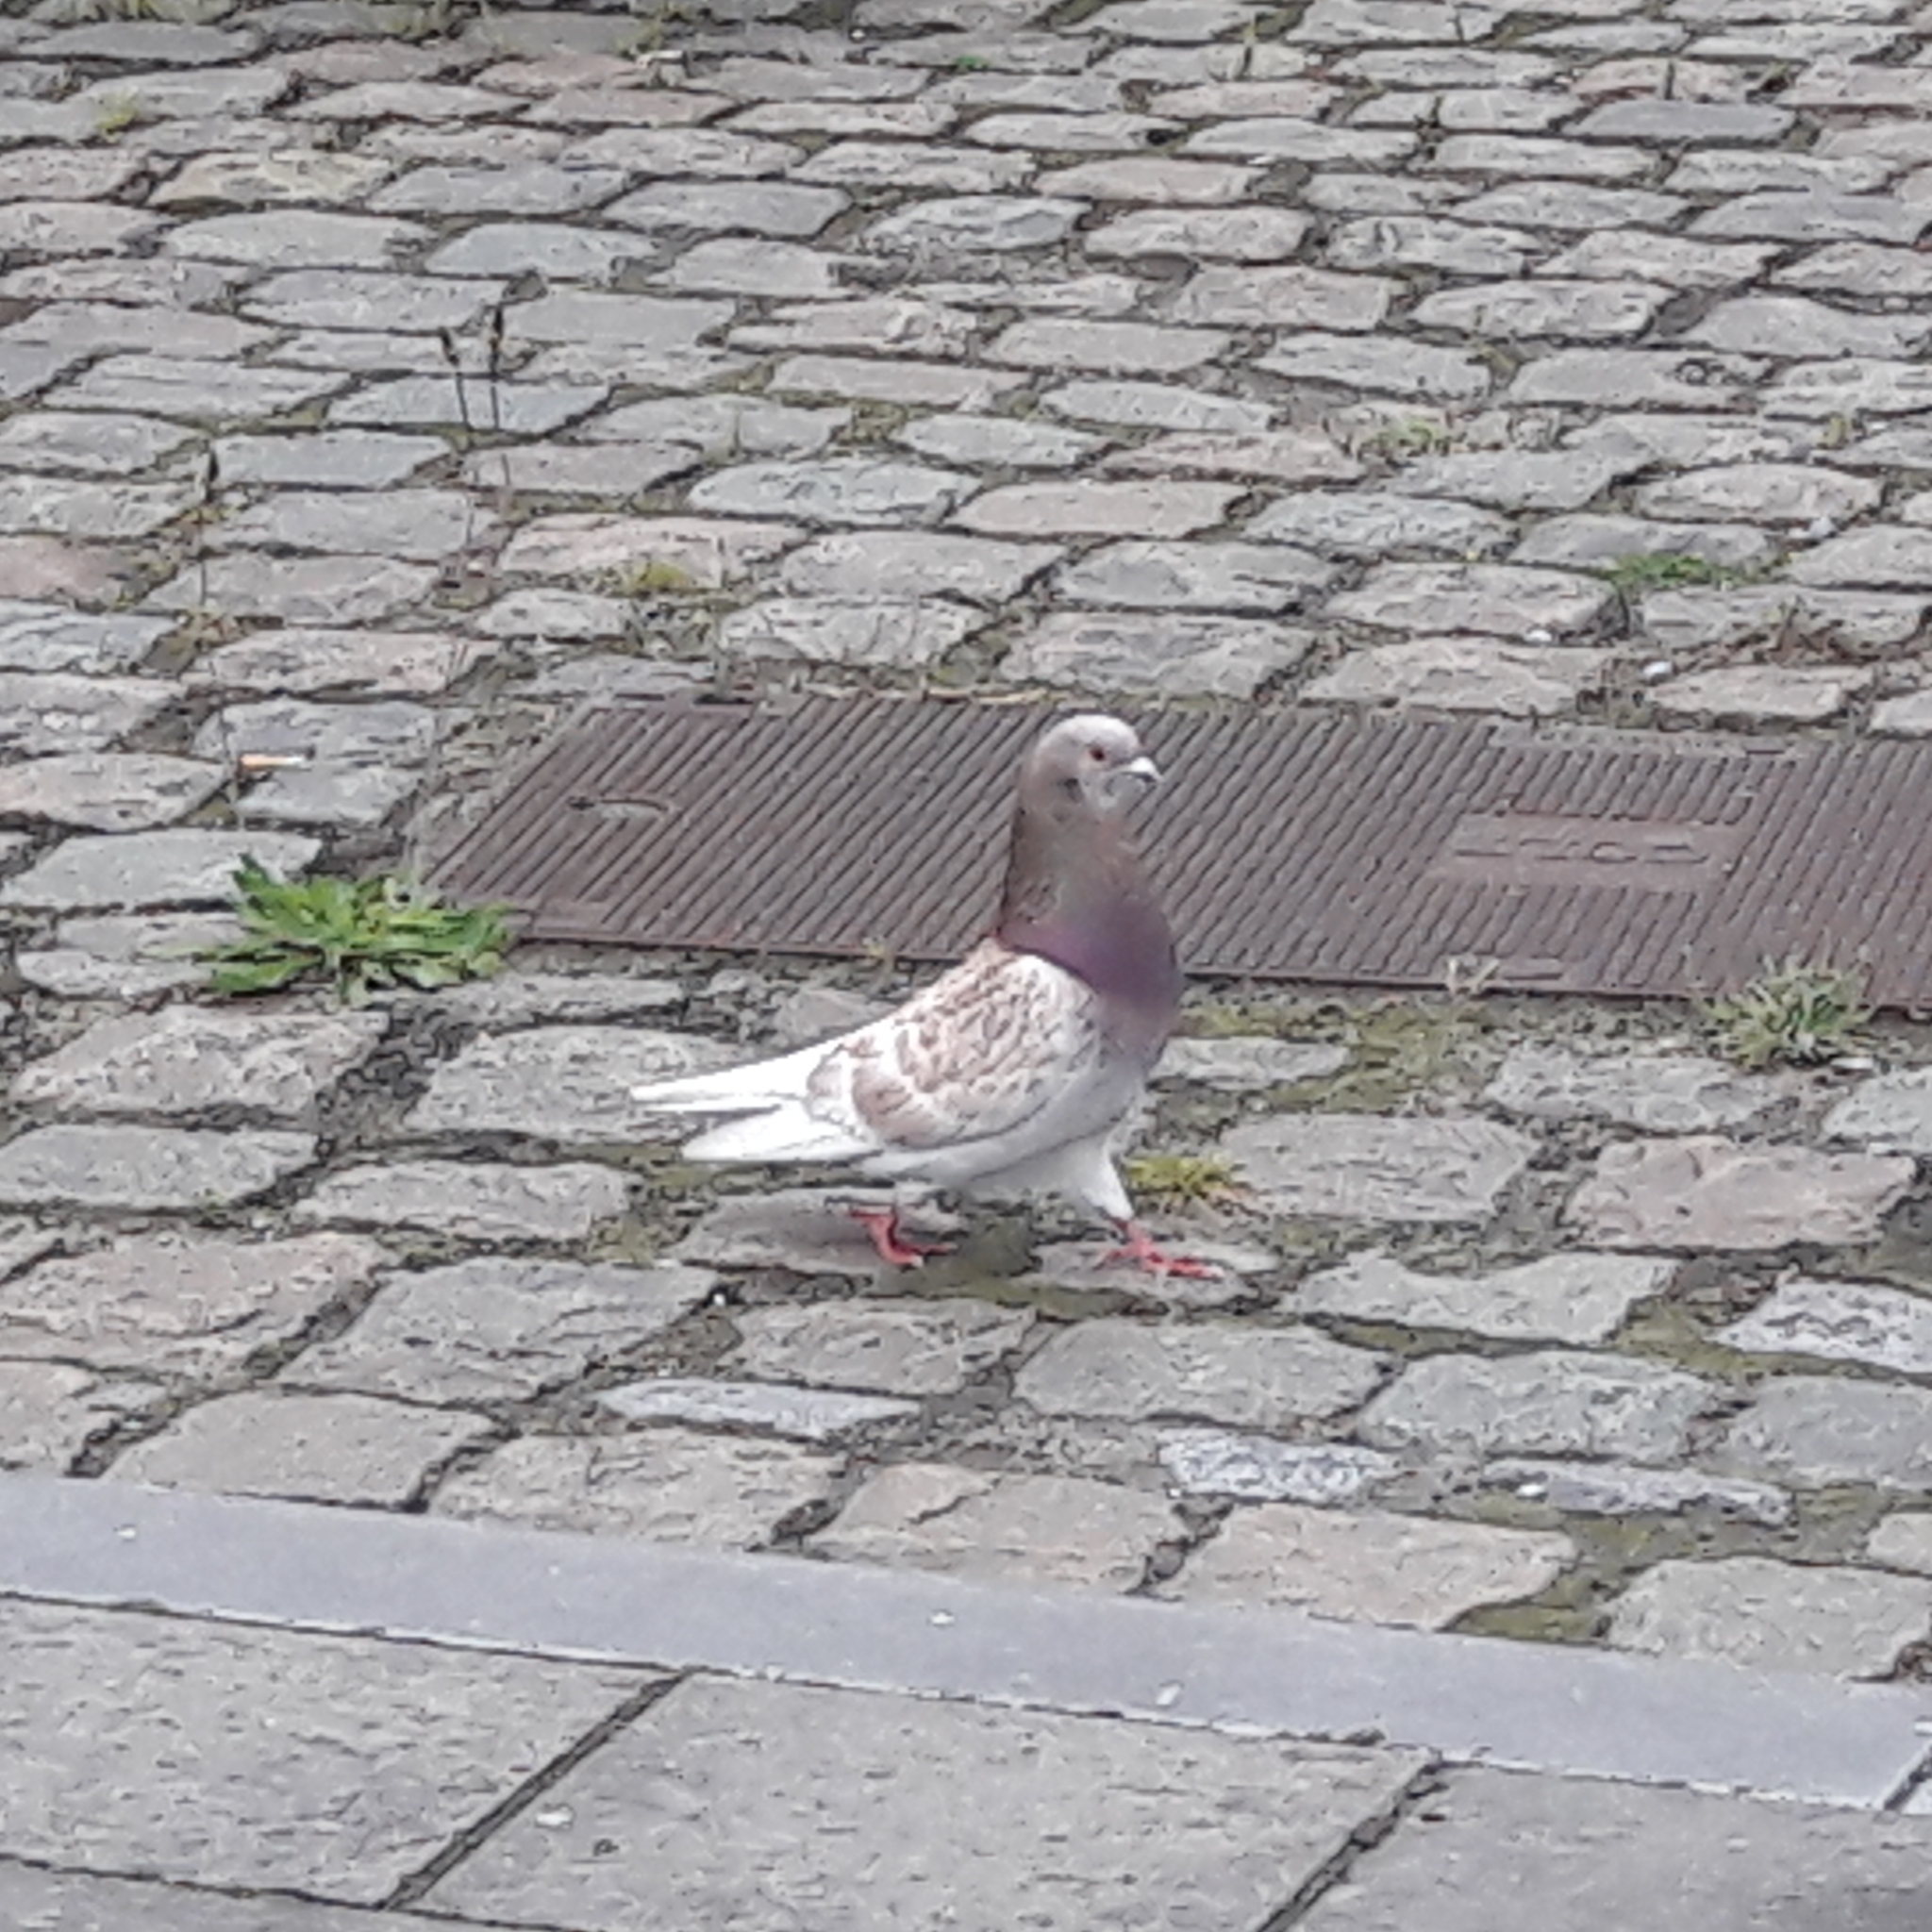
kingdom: Animalia
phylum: Chordata
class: Aves
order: Columbiformes
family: Columbidae
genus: Columba
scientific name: Columba livia
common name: Rock pigeon
